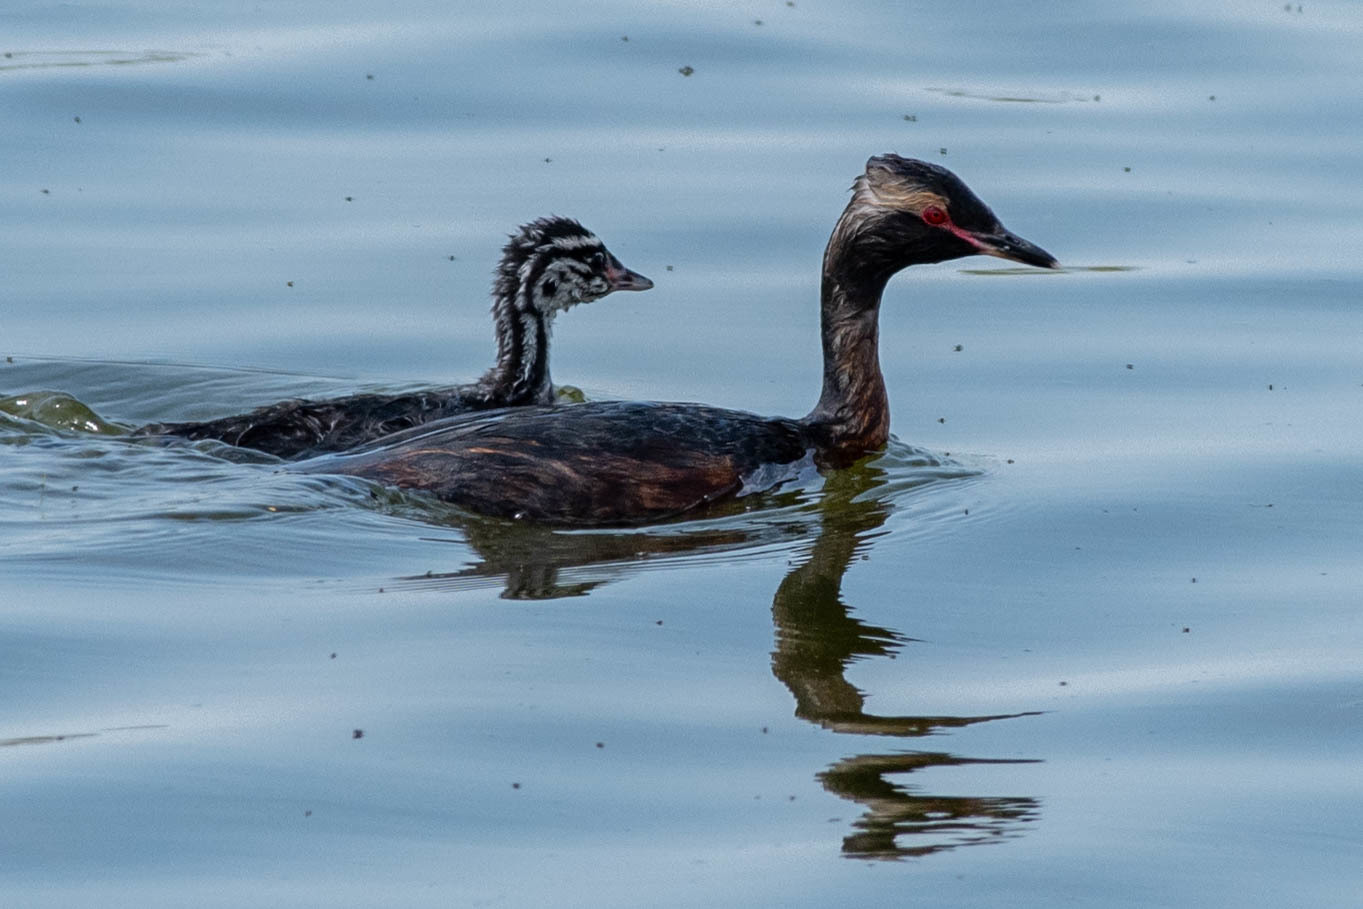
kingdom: Animalia
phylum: Chordata
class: Aves
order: Podicipediformes
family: Podicipedidae
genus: Podiceps
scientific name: Podiceps auritus
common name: Horned grebe
